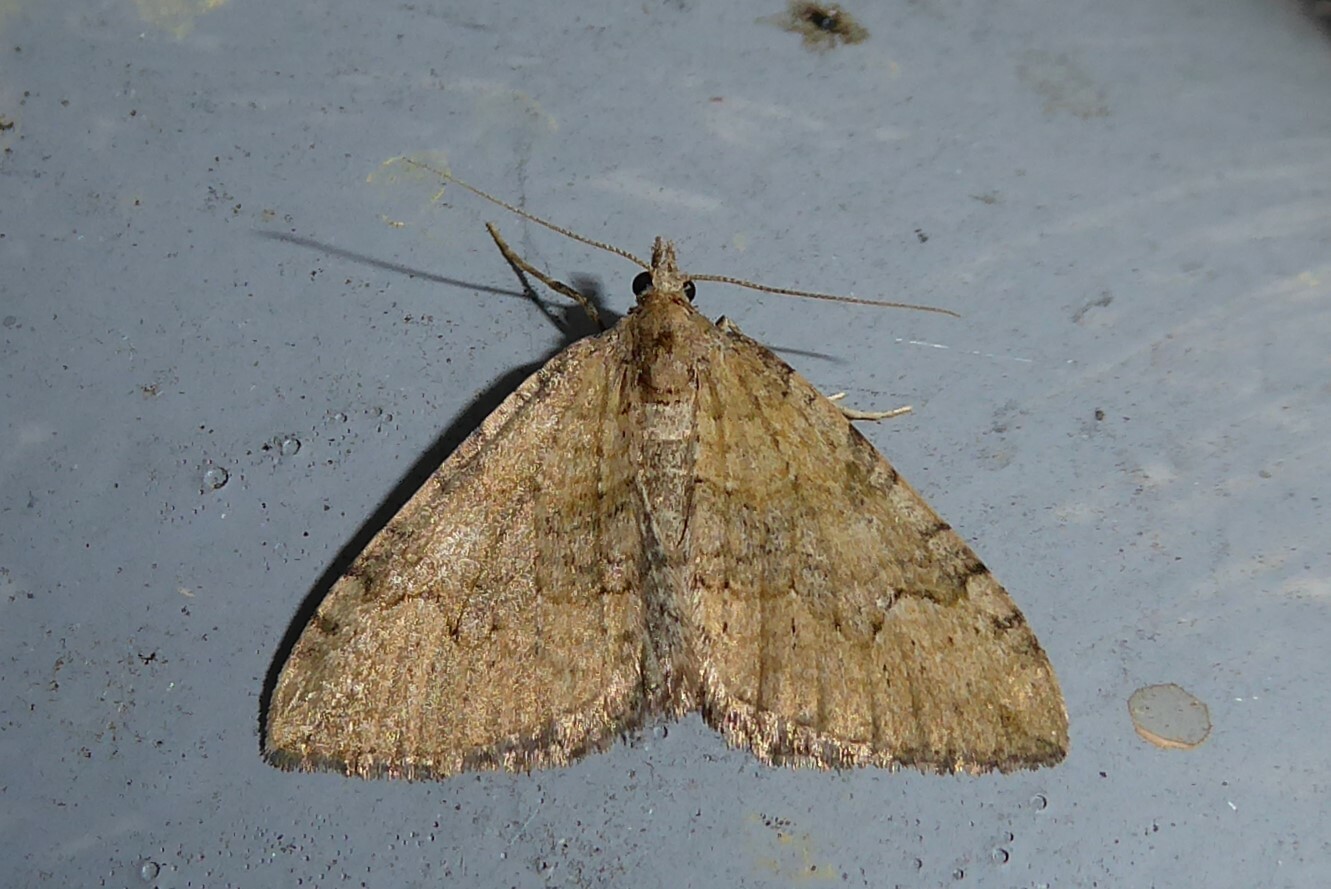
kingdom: Animalia
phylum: Arthropoda
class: Insecta
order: Lepidoptera
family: Geometridae
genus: Epyaxa
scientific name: Epyaxa rosearia
